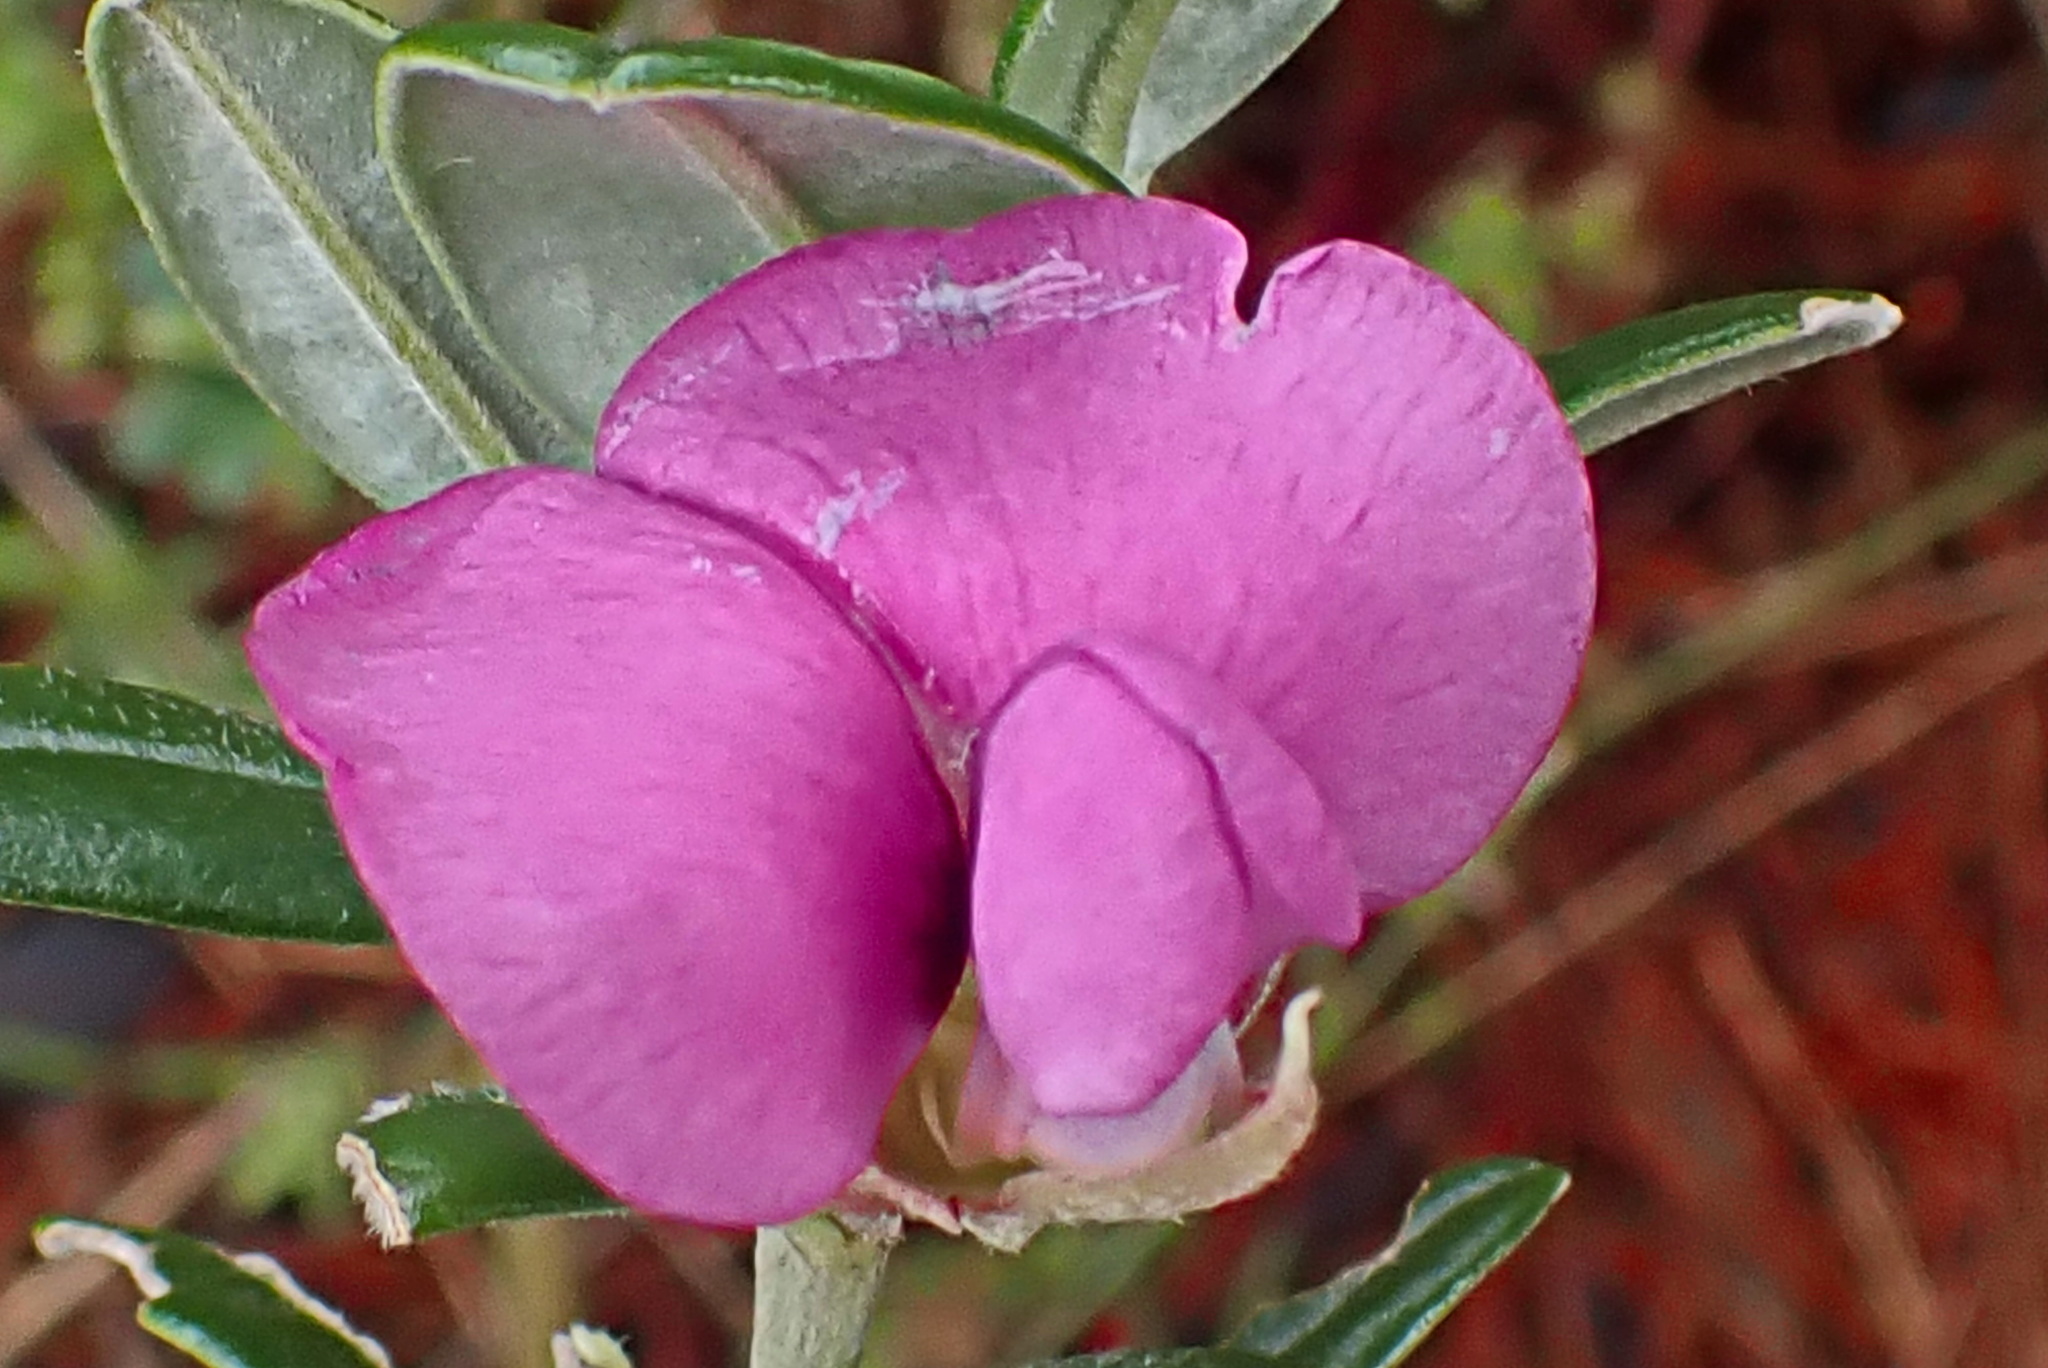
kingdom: Plantae
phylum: Tracheophyta
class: Magnoliopsida
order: Fabales
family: Fabaceae
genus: Podalyria
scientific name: Podalyria buxifolia
